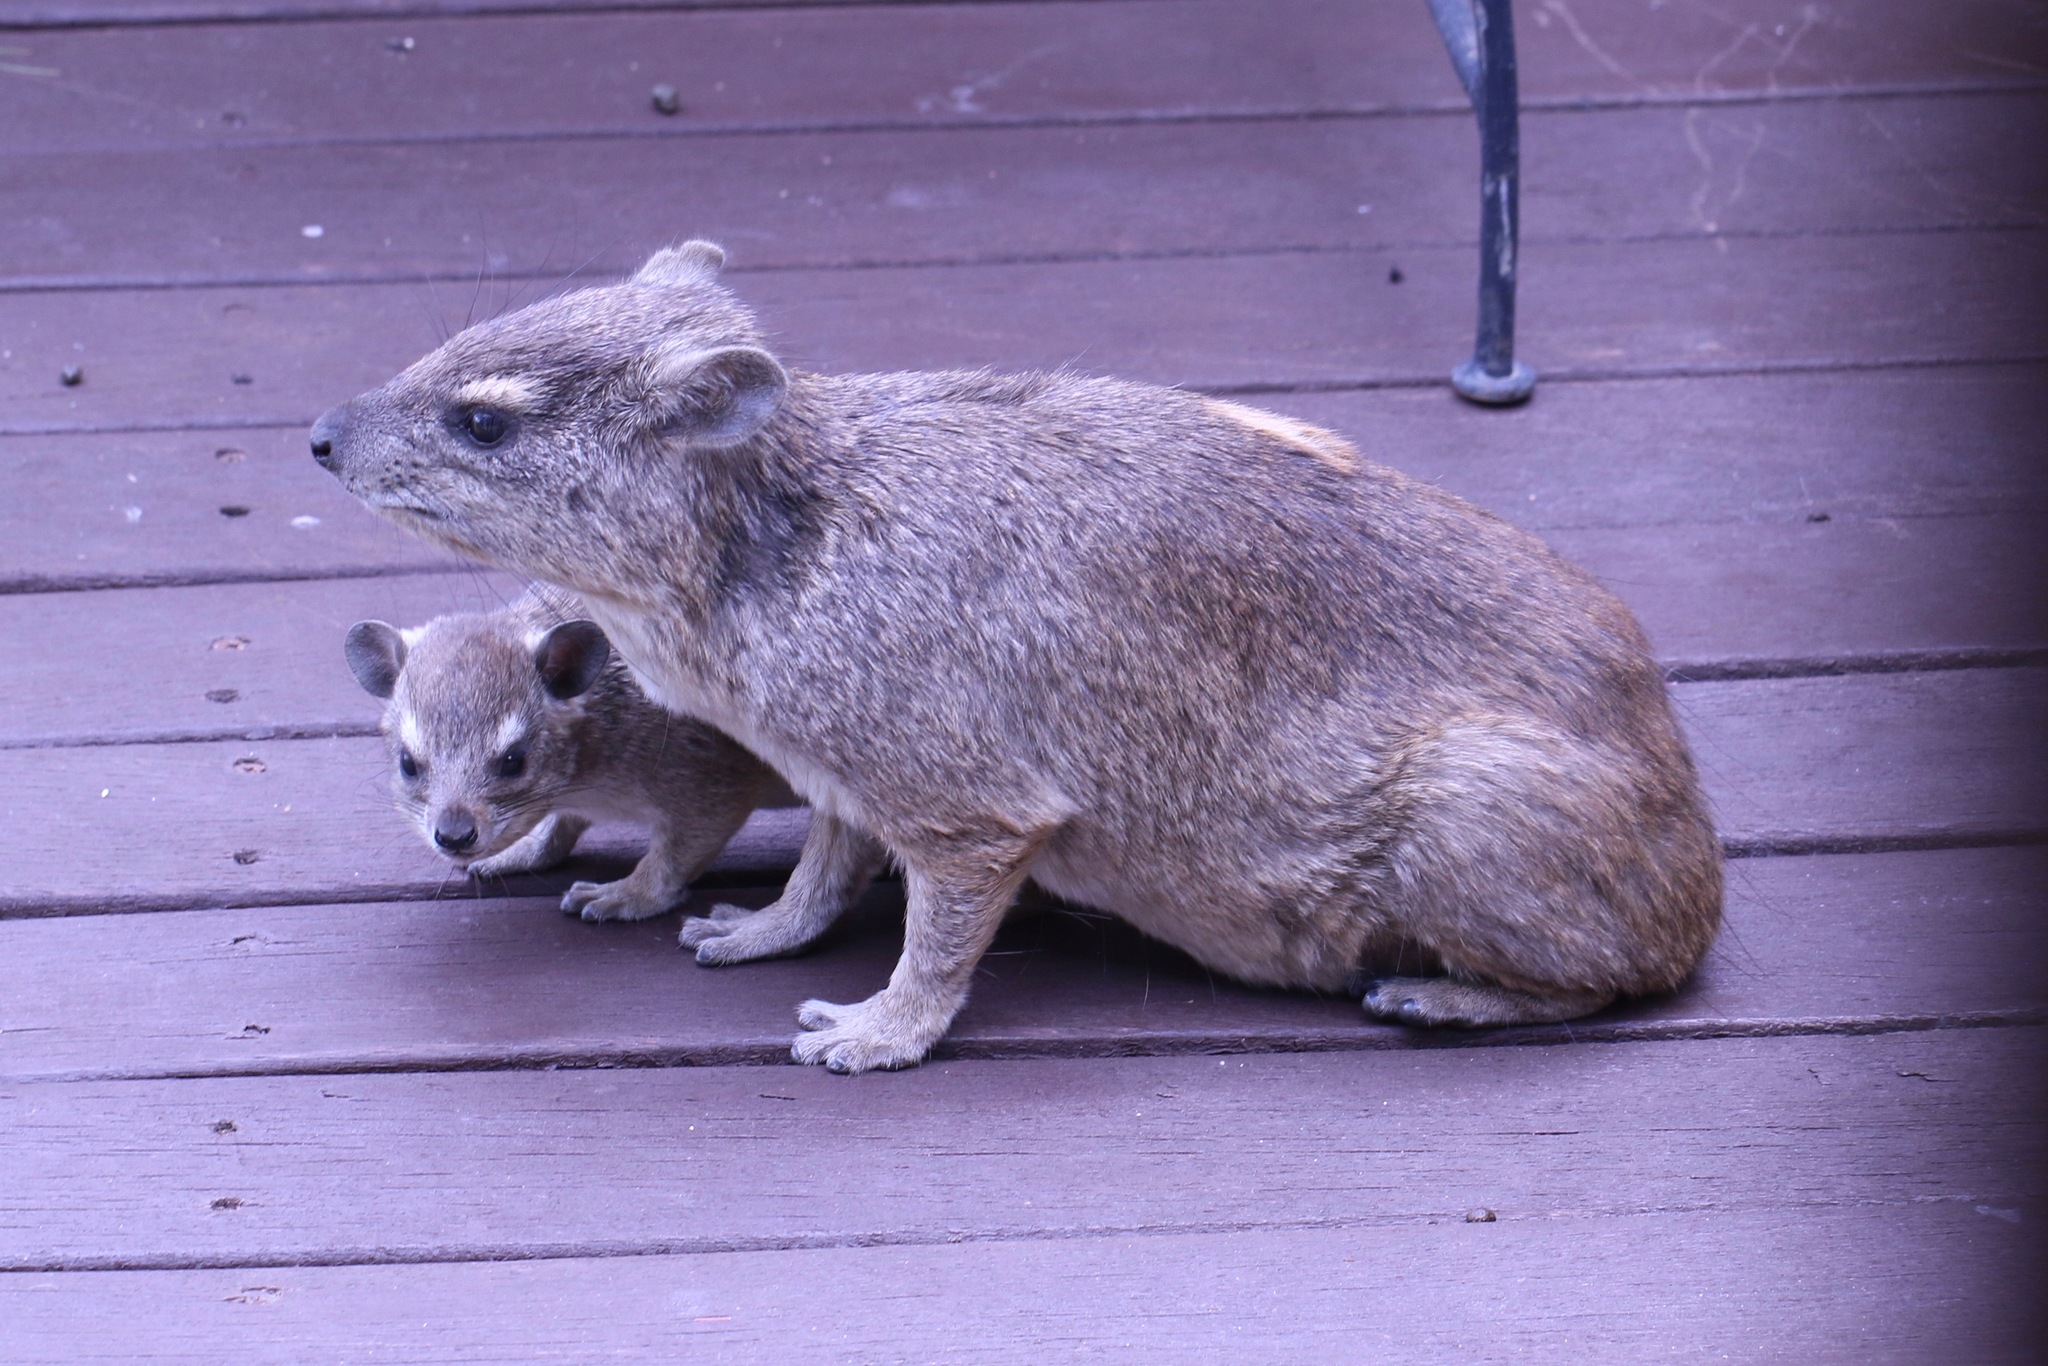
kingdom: Animalia
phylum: Chordata
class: Mammalia
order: Hyracoidea
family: Procaviidae
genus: Heterohyrax
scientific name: Heterohyrax brucei
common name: Bush hyrax
